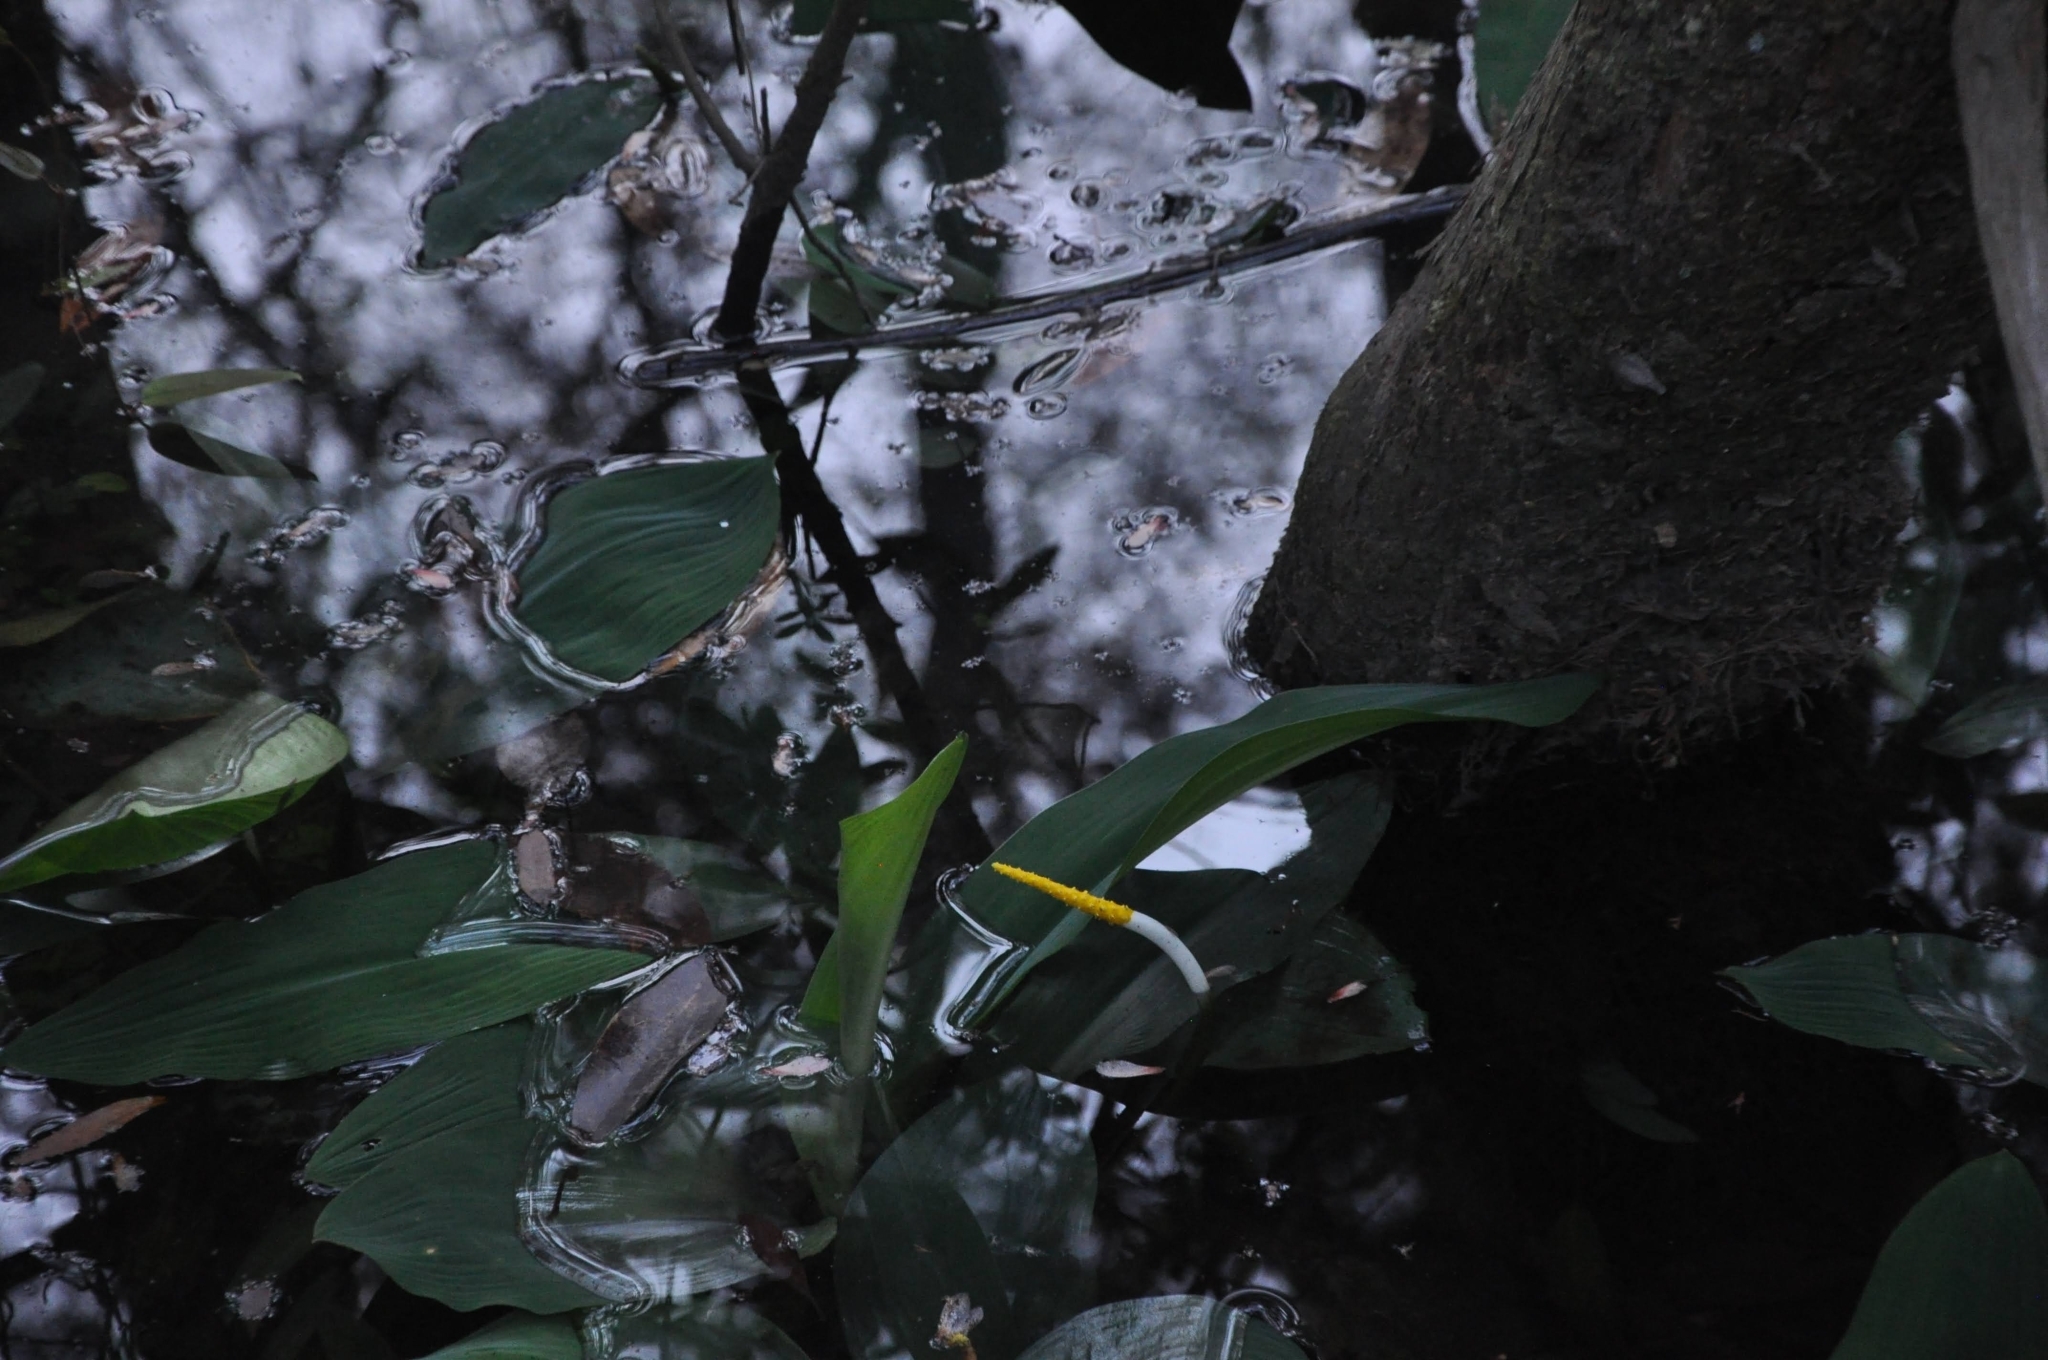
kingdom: Plantae
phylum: Tracheophyta
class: Liliopsida
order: Alismatales
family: Araceae
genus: Orontium
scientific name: Orontium aquaticum
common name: Golden-club
